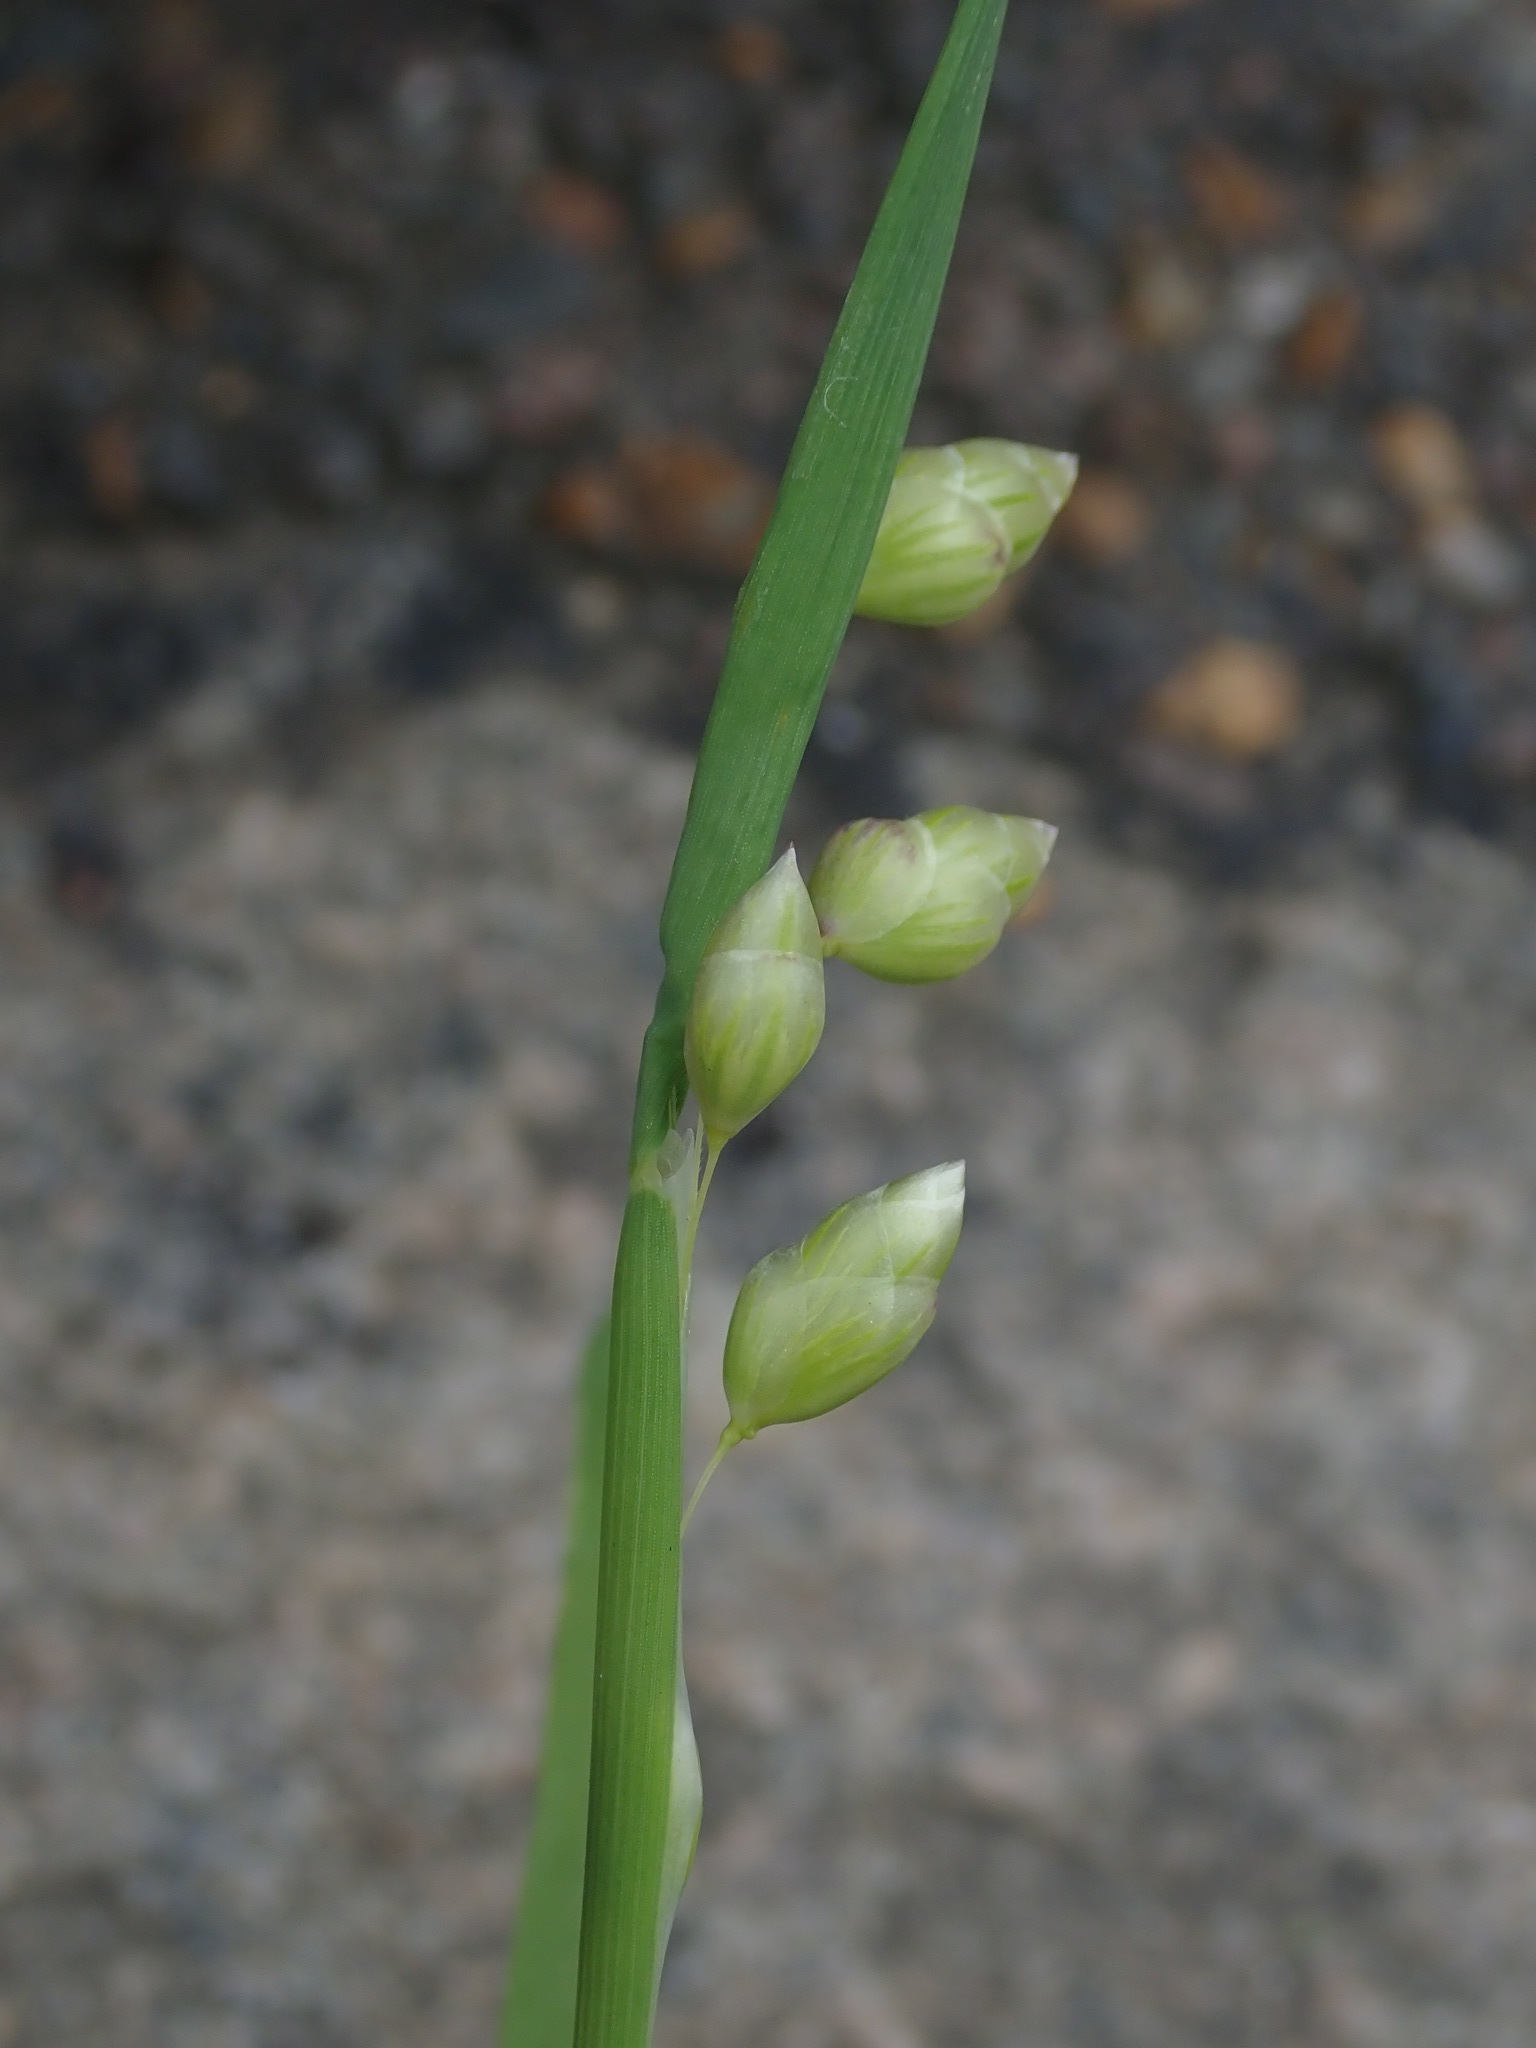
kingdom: Plantae
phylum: Tracheophyta
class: Liliopsida
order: Poales
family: Poaceae
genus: Briza
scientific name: Briza maxima
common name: Big quakinggrass
